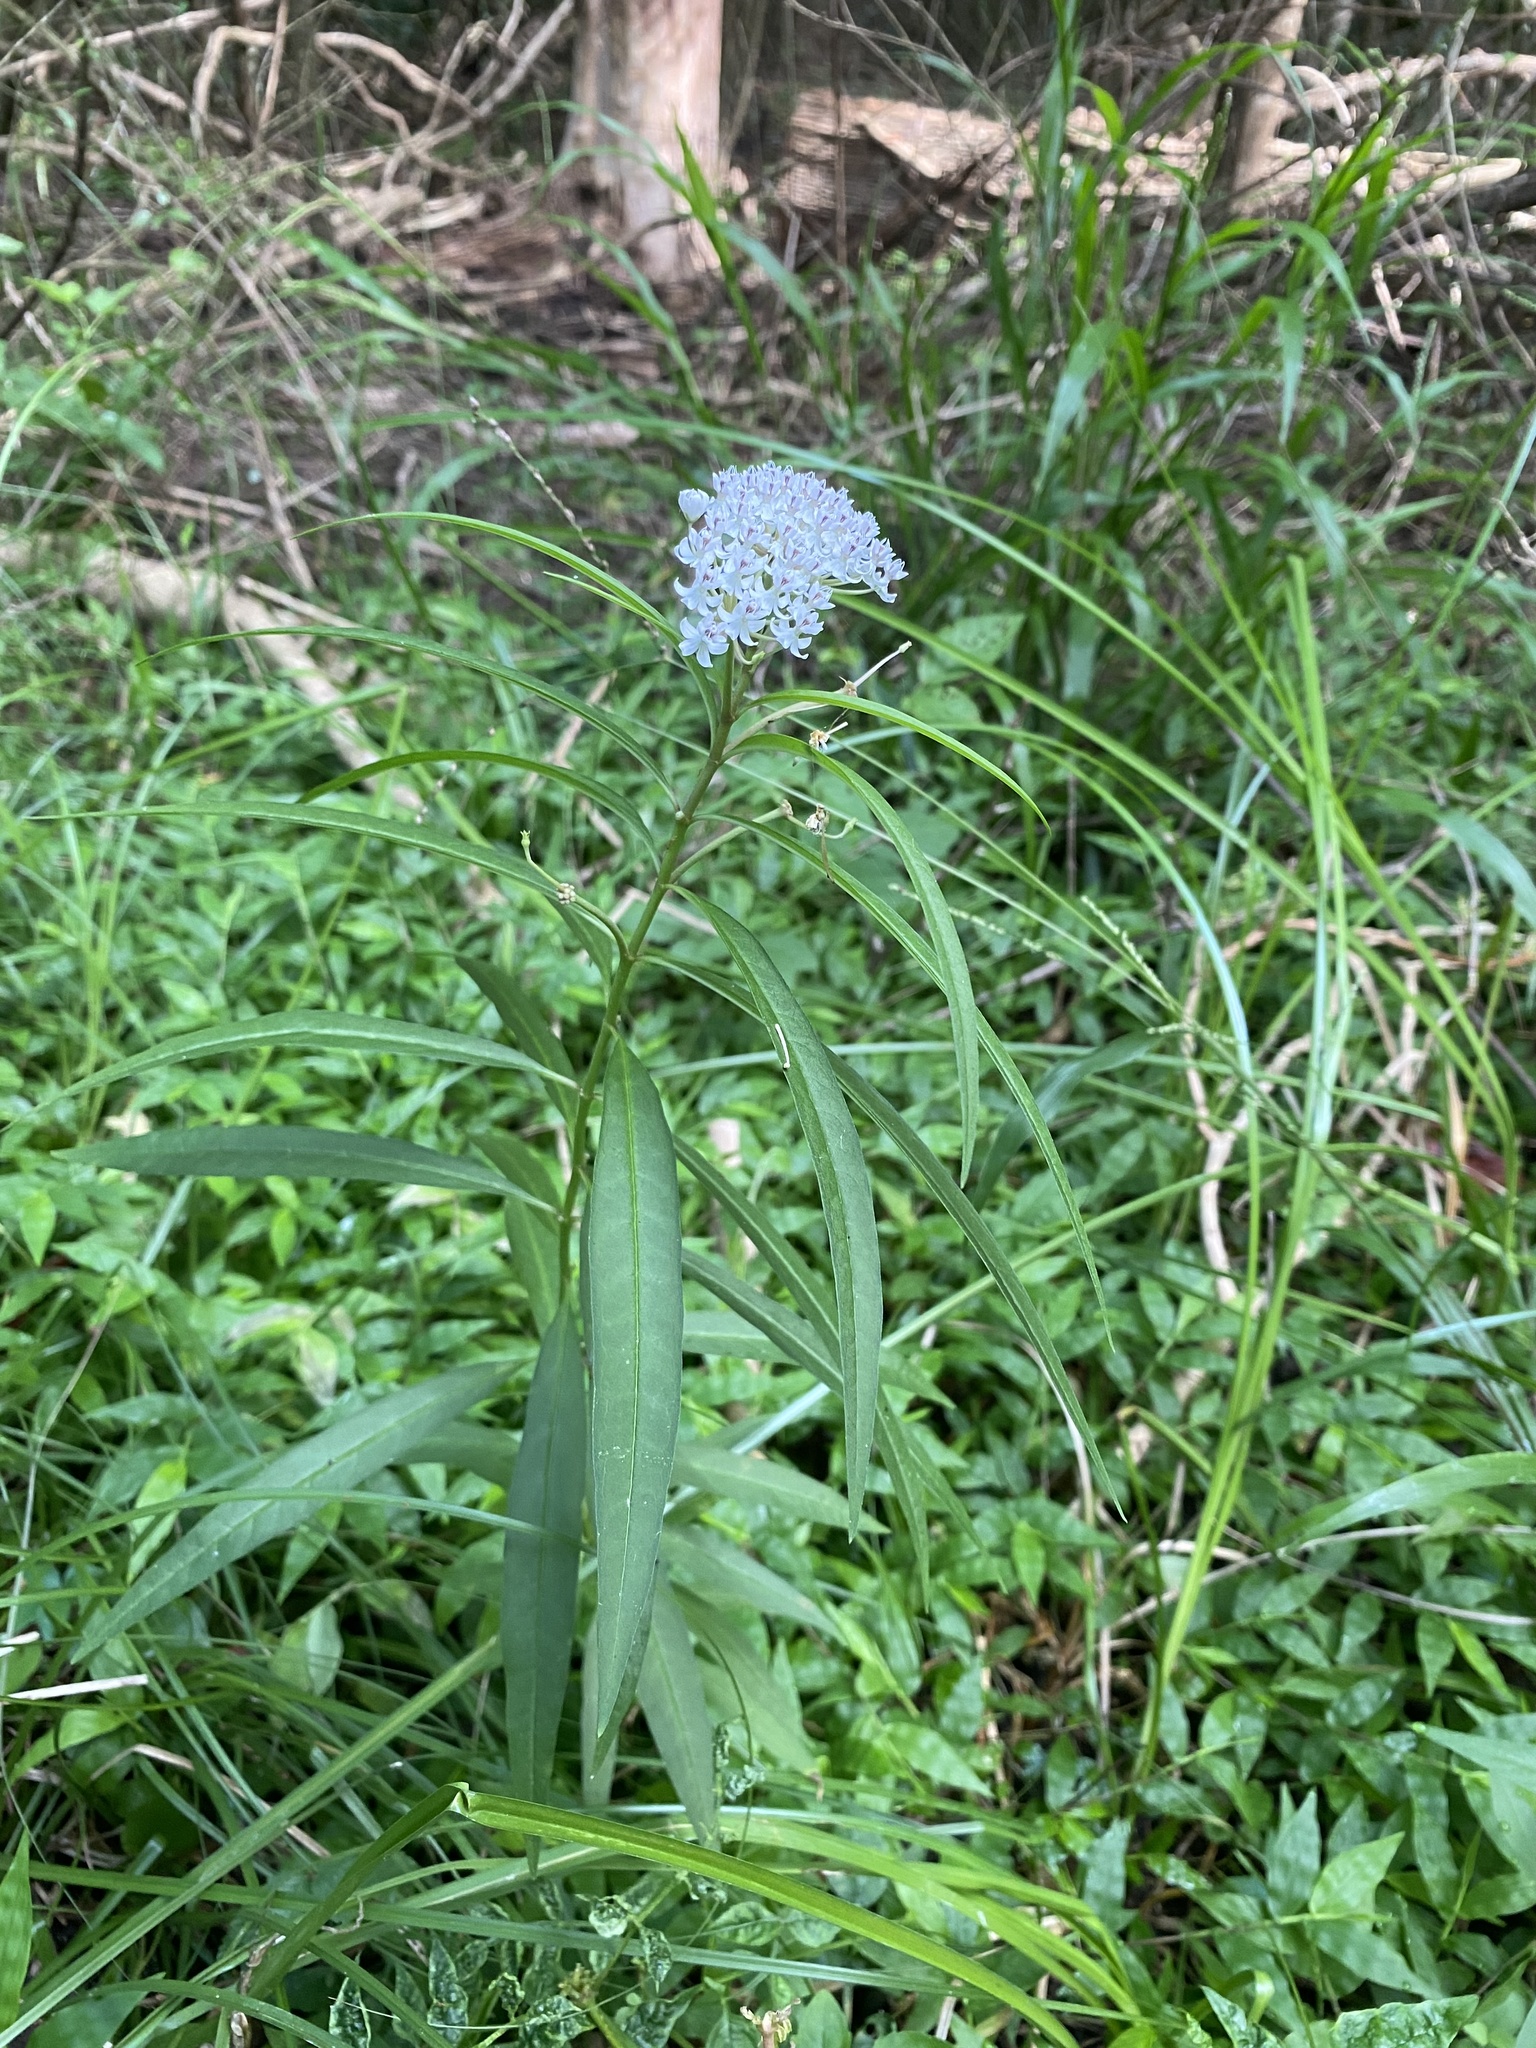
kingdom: Plantae
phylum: Tracheophyta
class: Magnoliopsida
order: Gentianales
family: Apocynaceae
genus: Asclepias
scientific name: Asclepias perennis
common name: Smooth-seed milkweed
